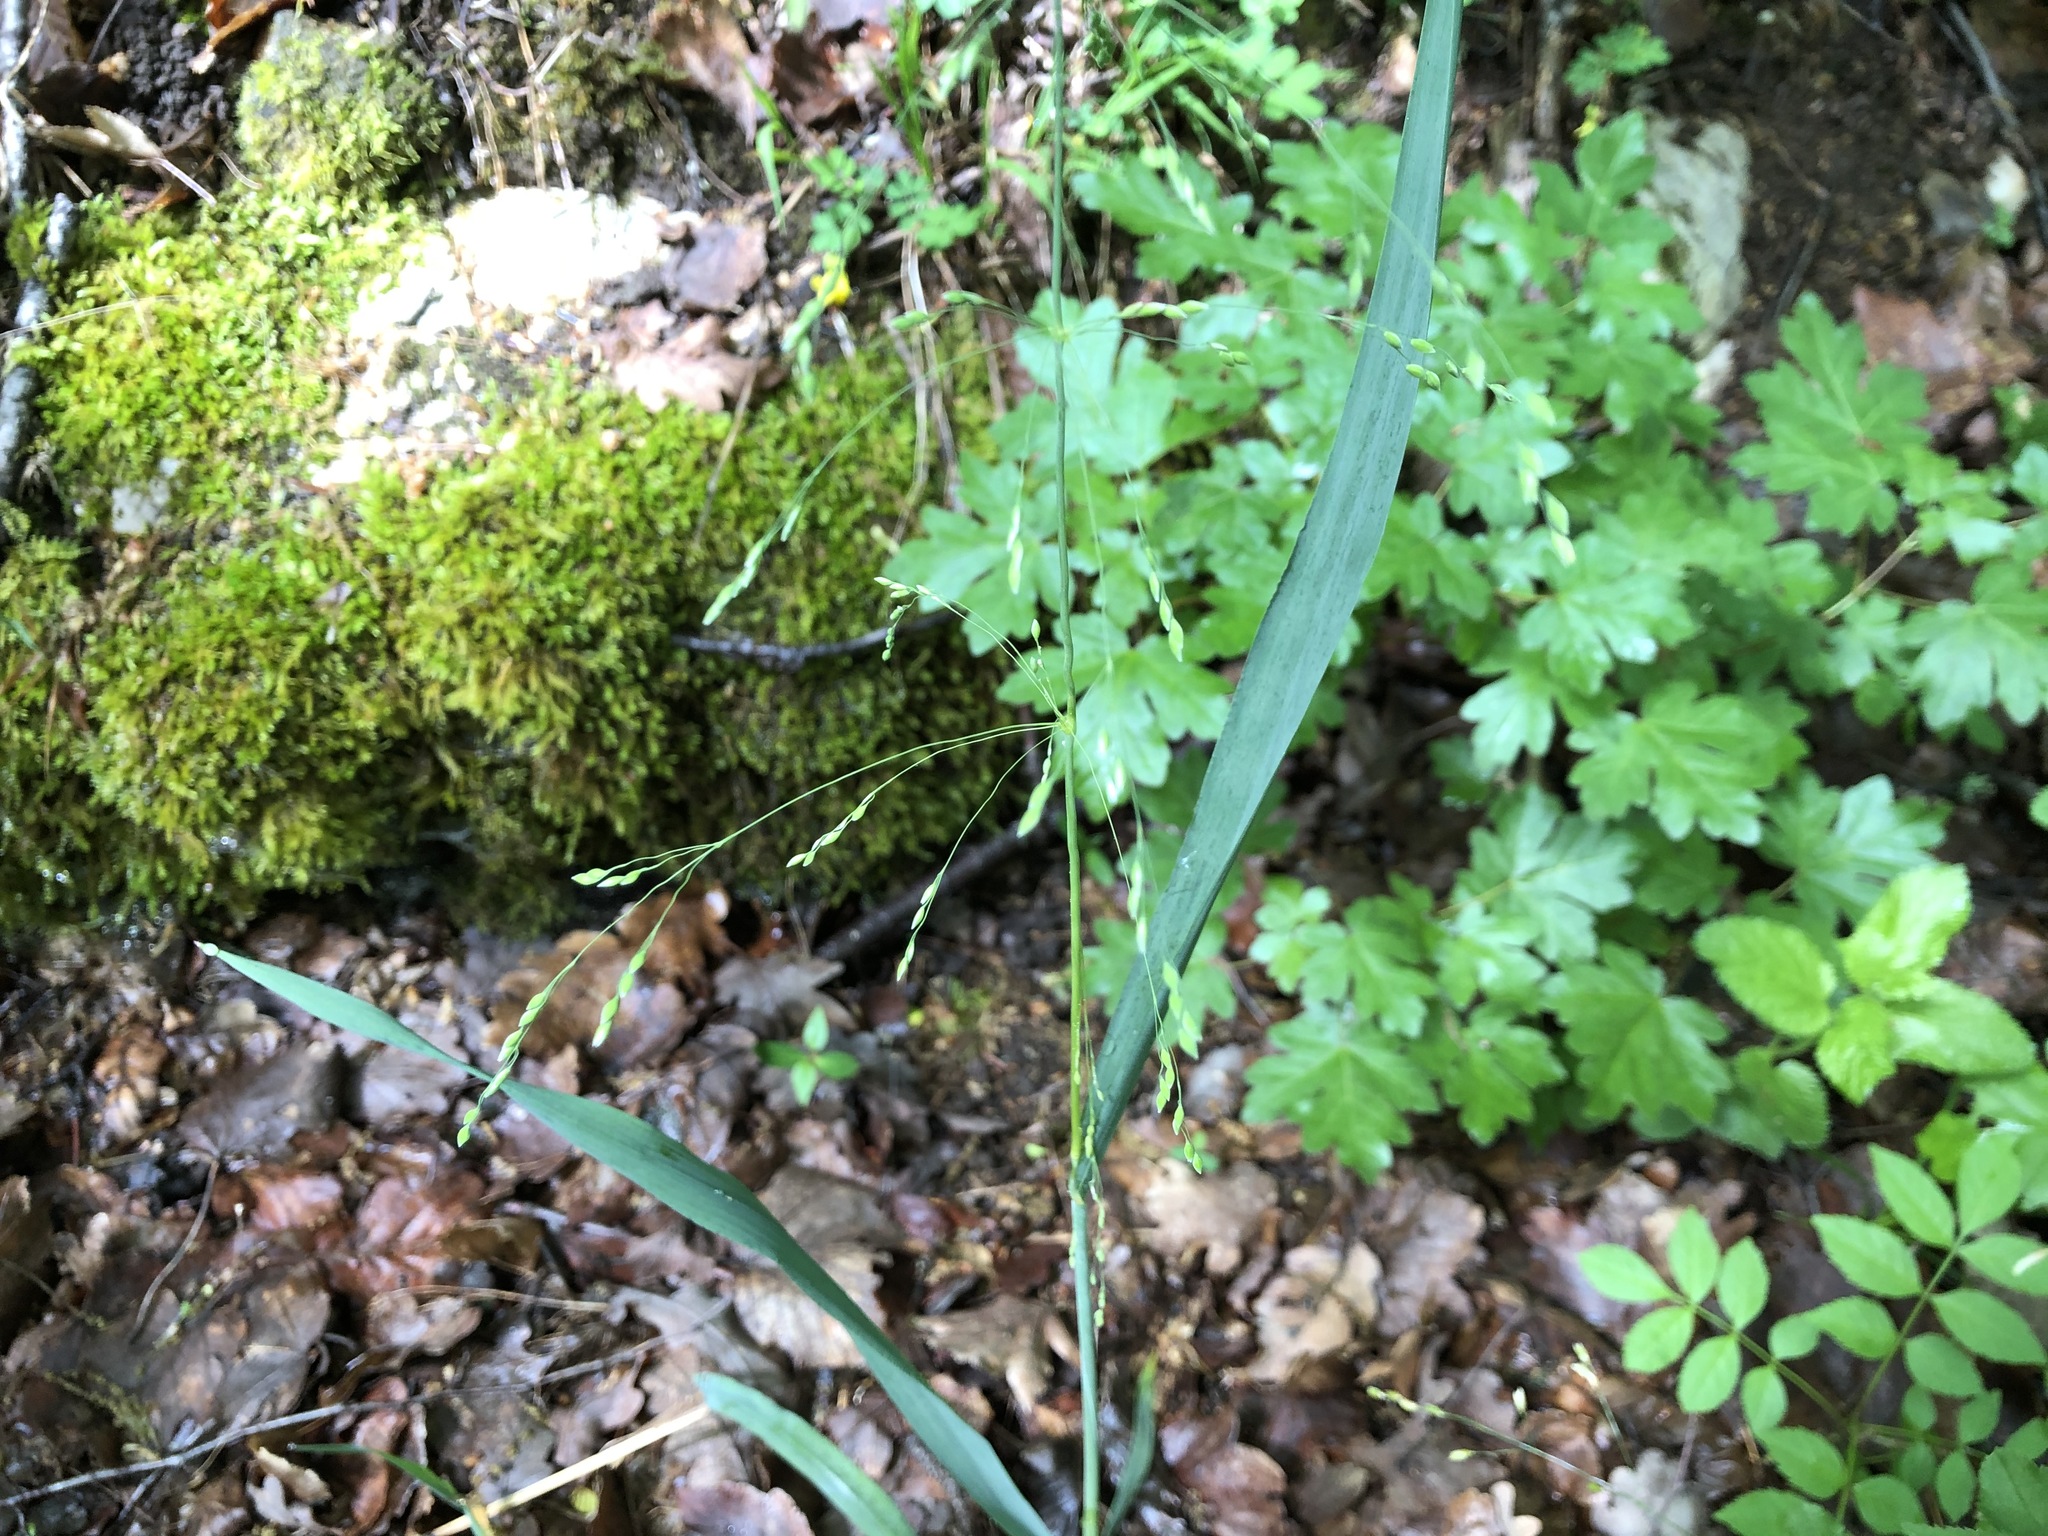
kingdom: Plantae
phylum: Tracheophyta
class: Liliopsida
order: Poales
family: Poaceae
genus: Milium
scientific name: Milium effusum
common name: Wood millet
